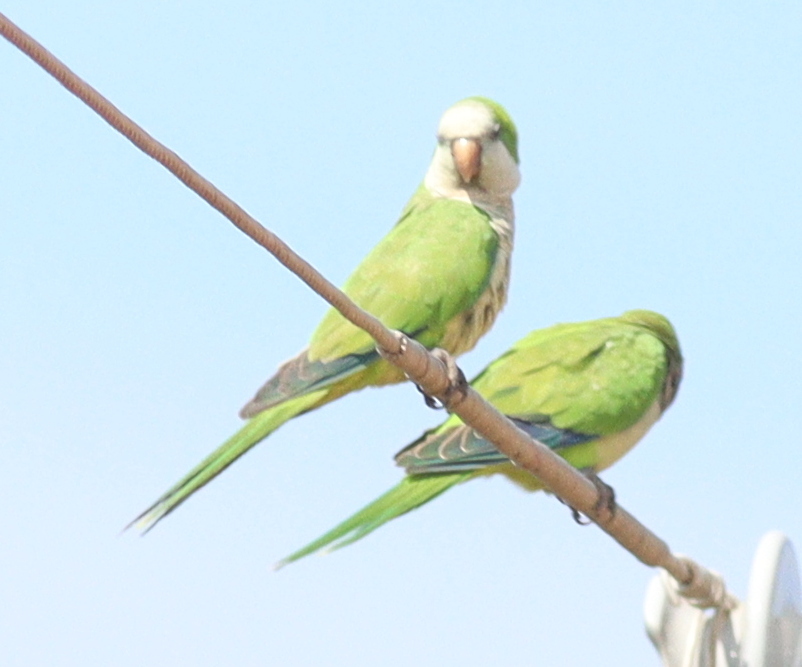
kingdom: Animalia
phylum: Chordata
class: Aves
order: Psittaciformes
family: Psittacidae
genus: Myiopsitta
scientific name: Myiopsitta monachus
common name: Monk parakeet
